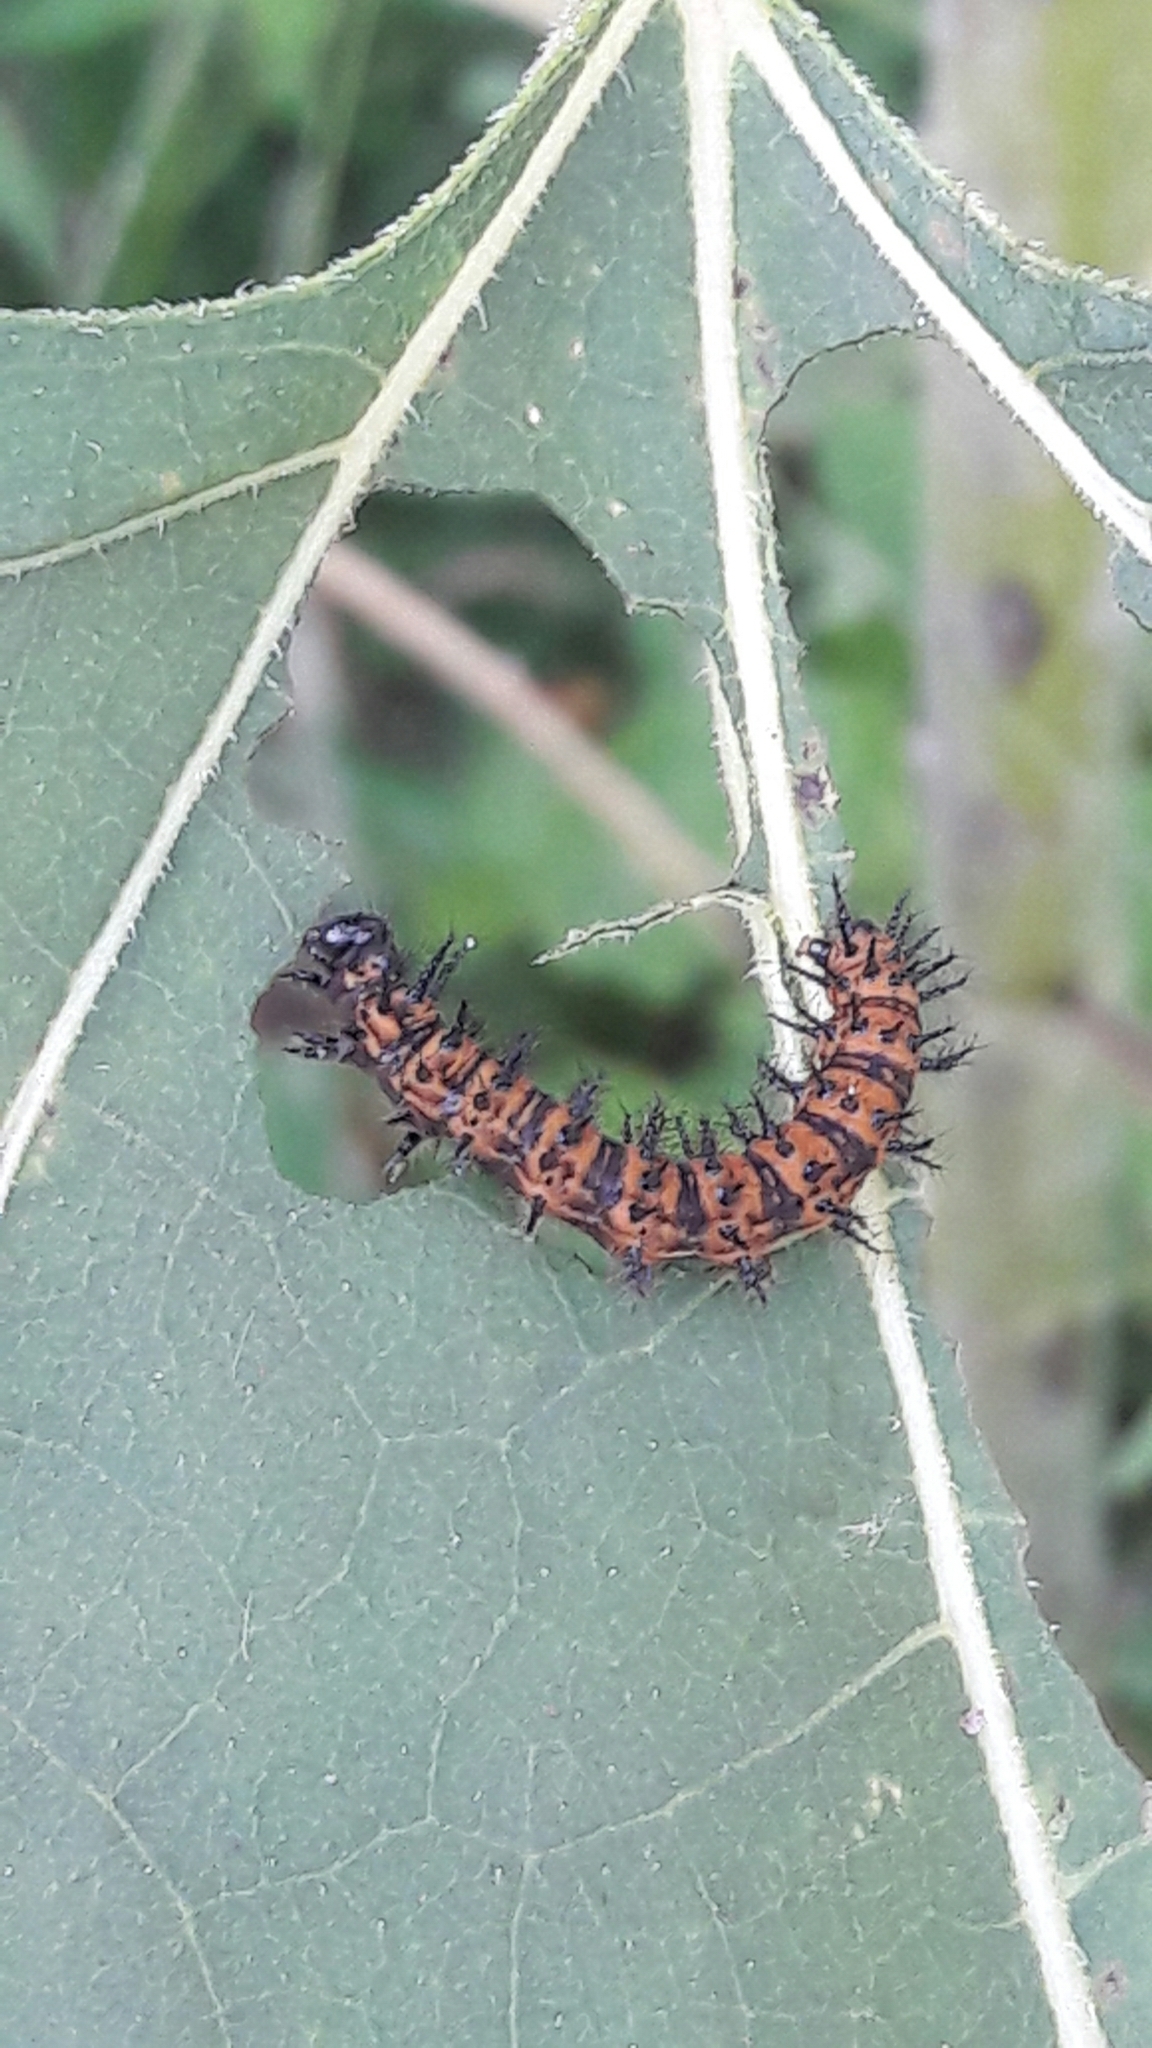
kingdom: Animalia
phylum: Arthropoda
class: Insecta
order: Lepidoptera
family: Nymphalidae
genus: Chlosyne
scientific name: Chlosyne lacinia
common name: Bordered patch
